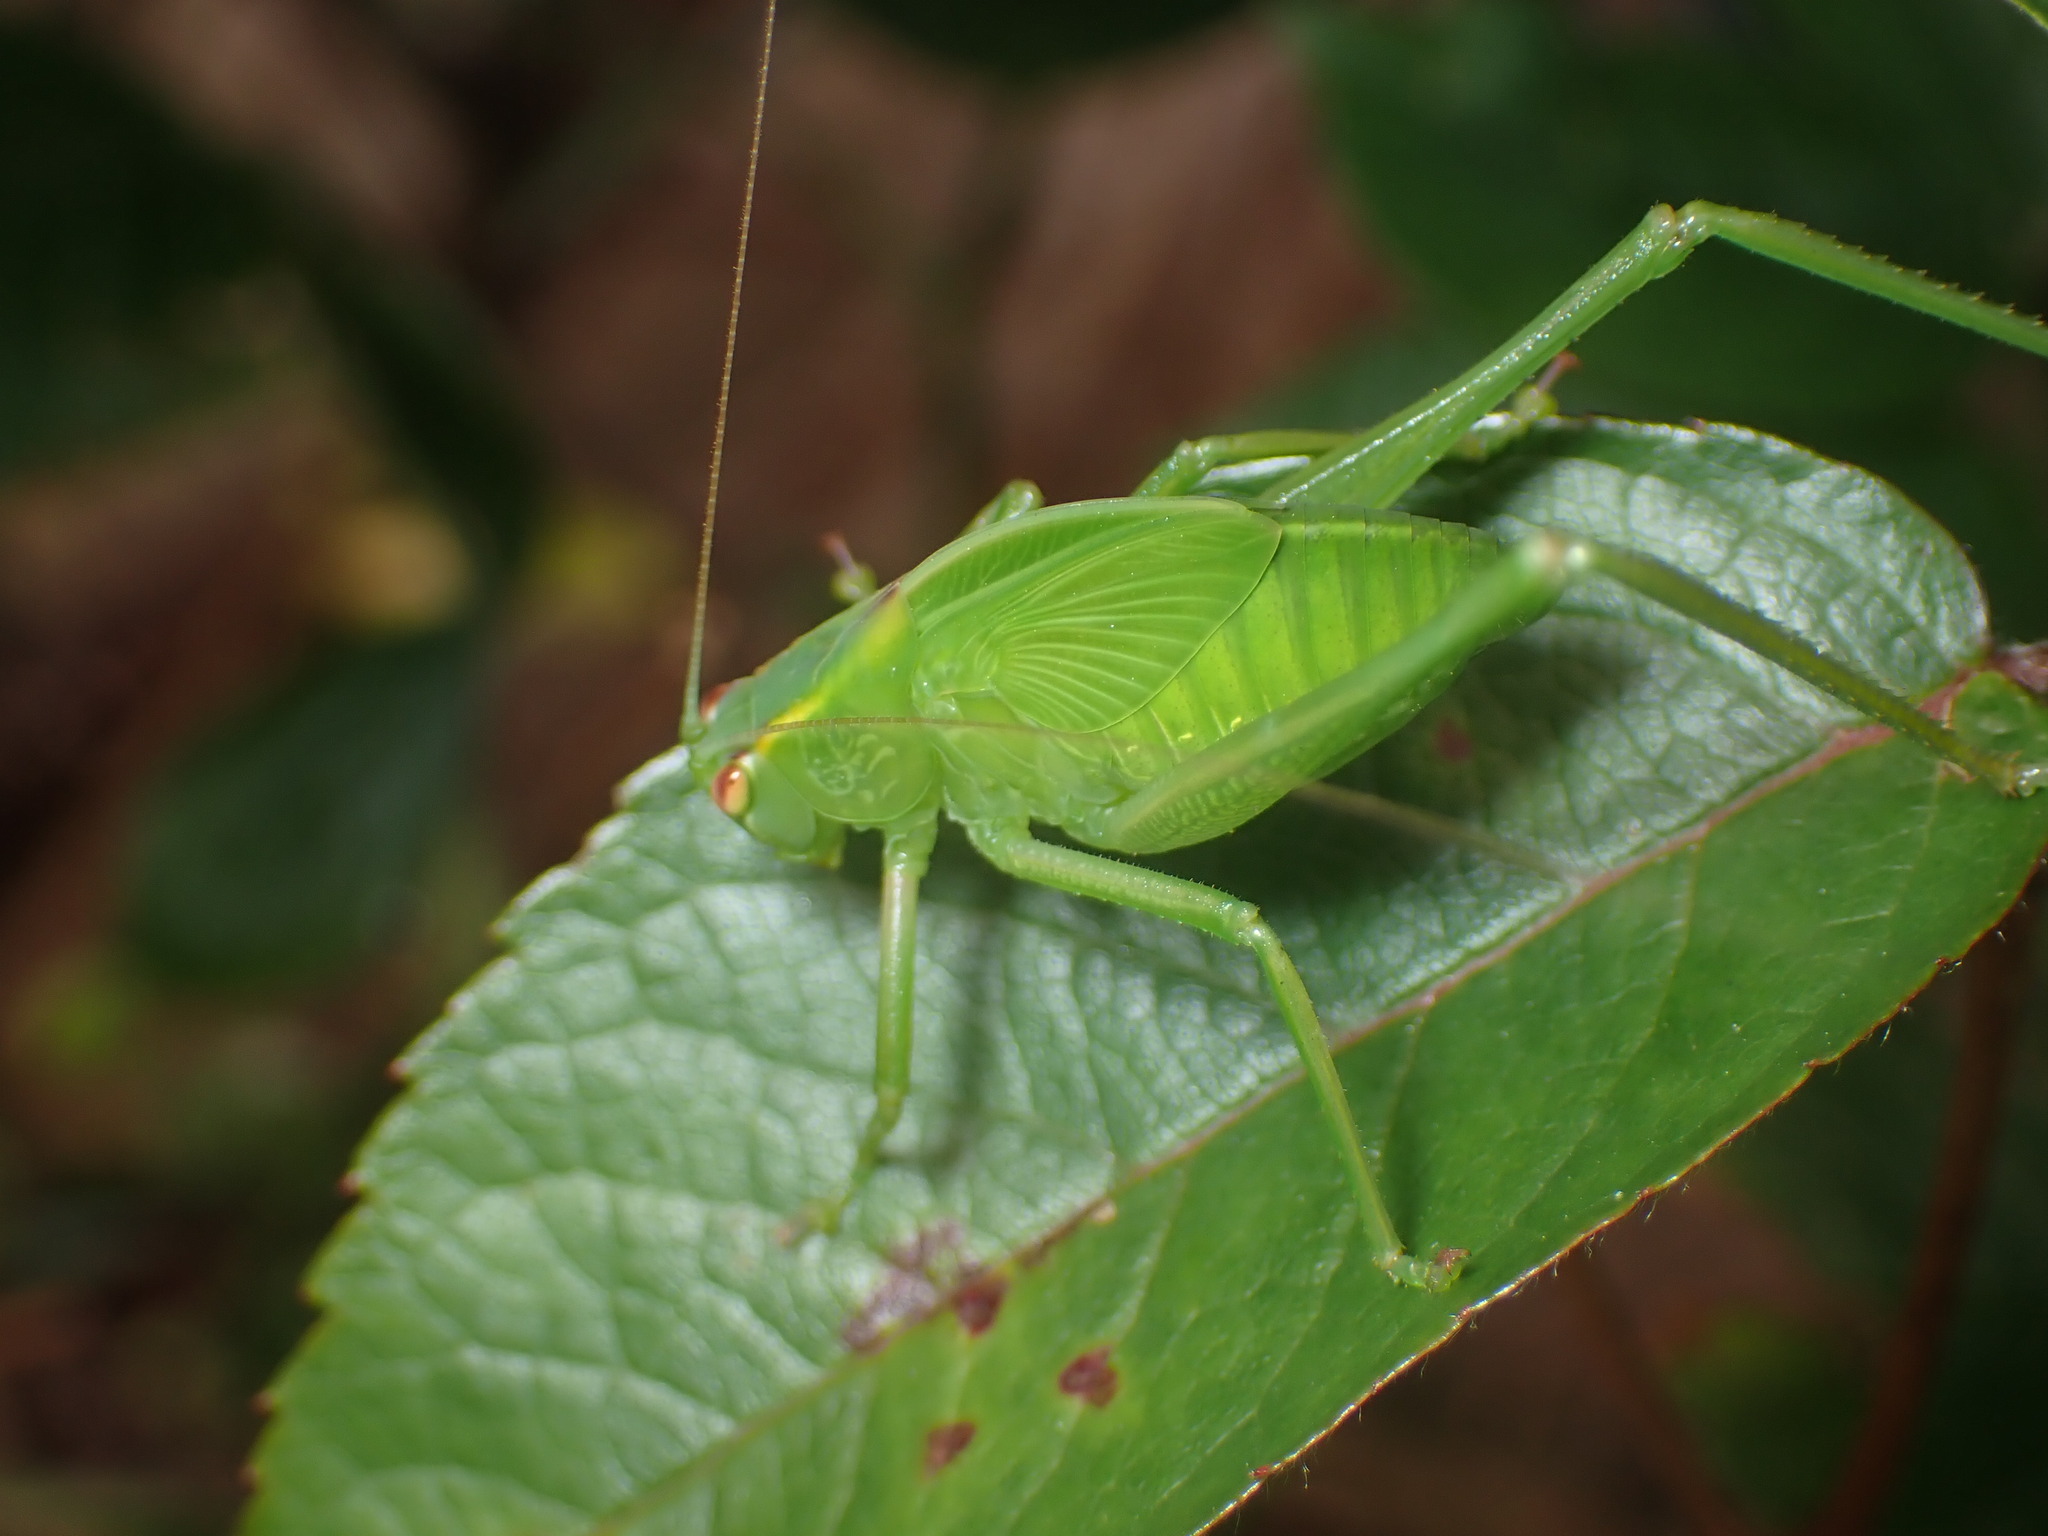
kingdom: Animalia
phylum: Arthropoda
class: Insecta
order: Orthoptera
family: Tettigoniidae
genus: Caedicia
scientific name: Caedicia simplex
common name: Common garden katydid
